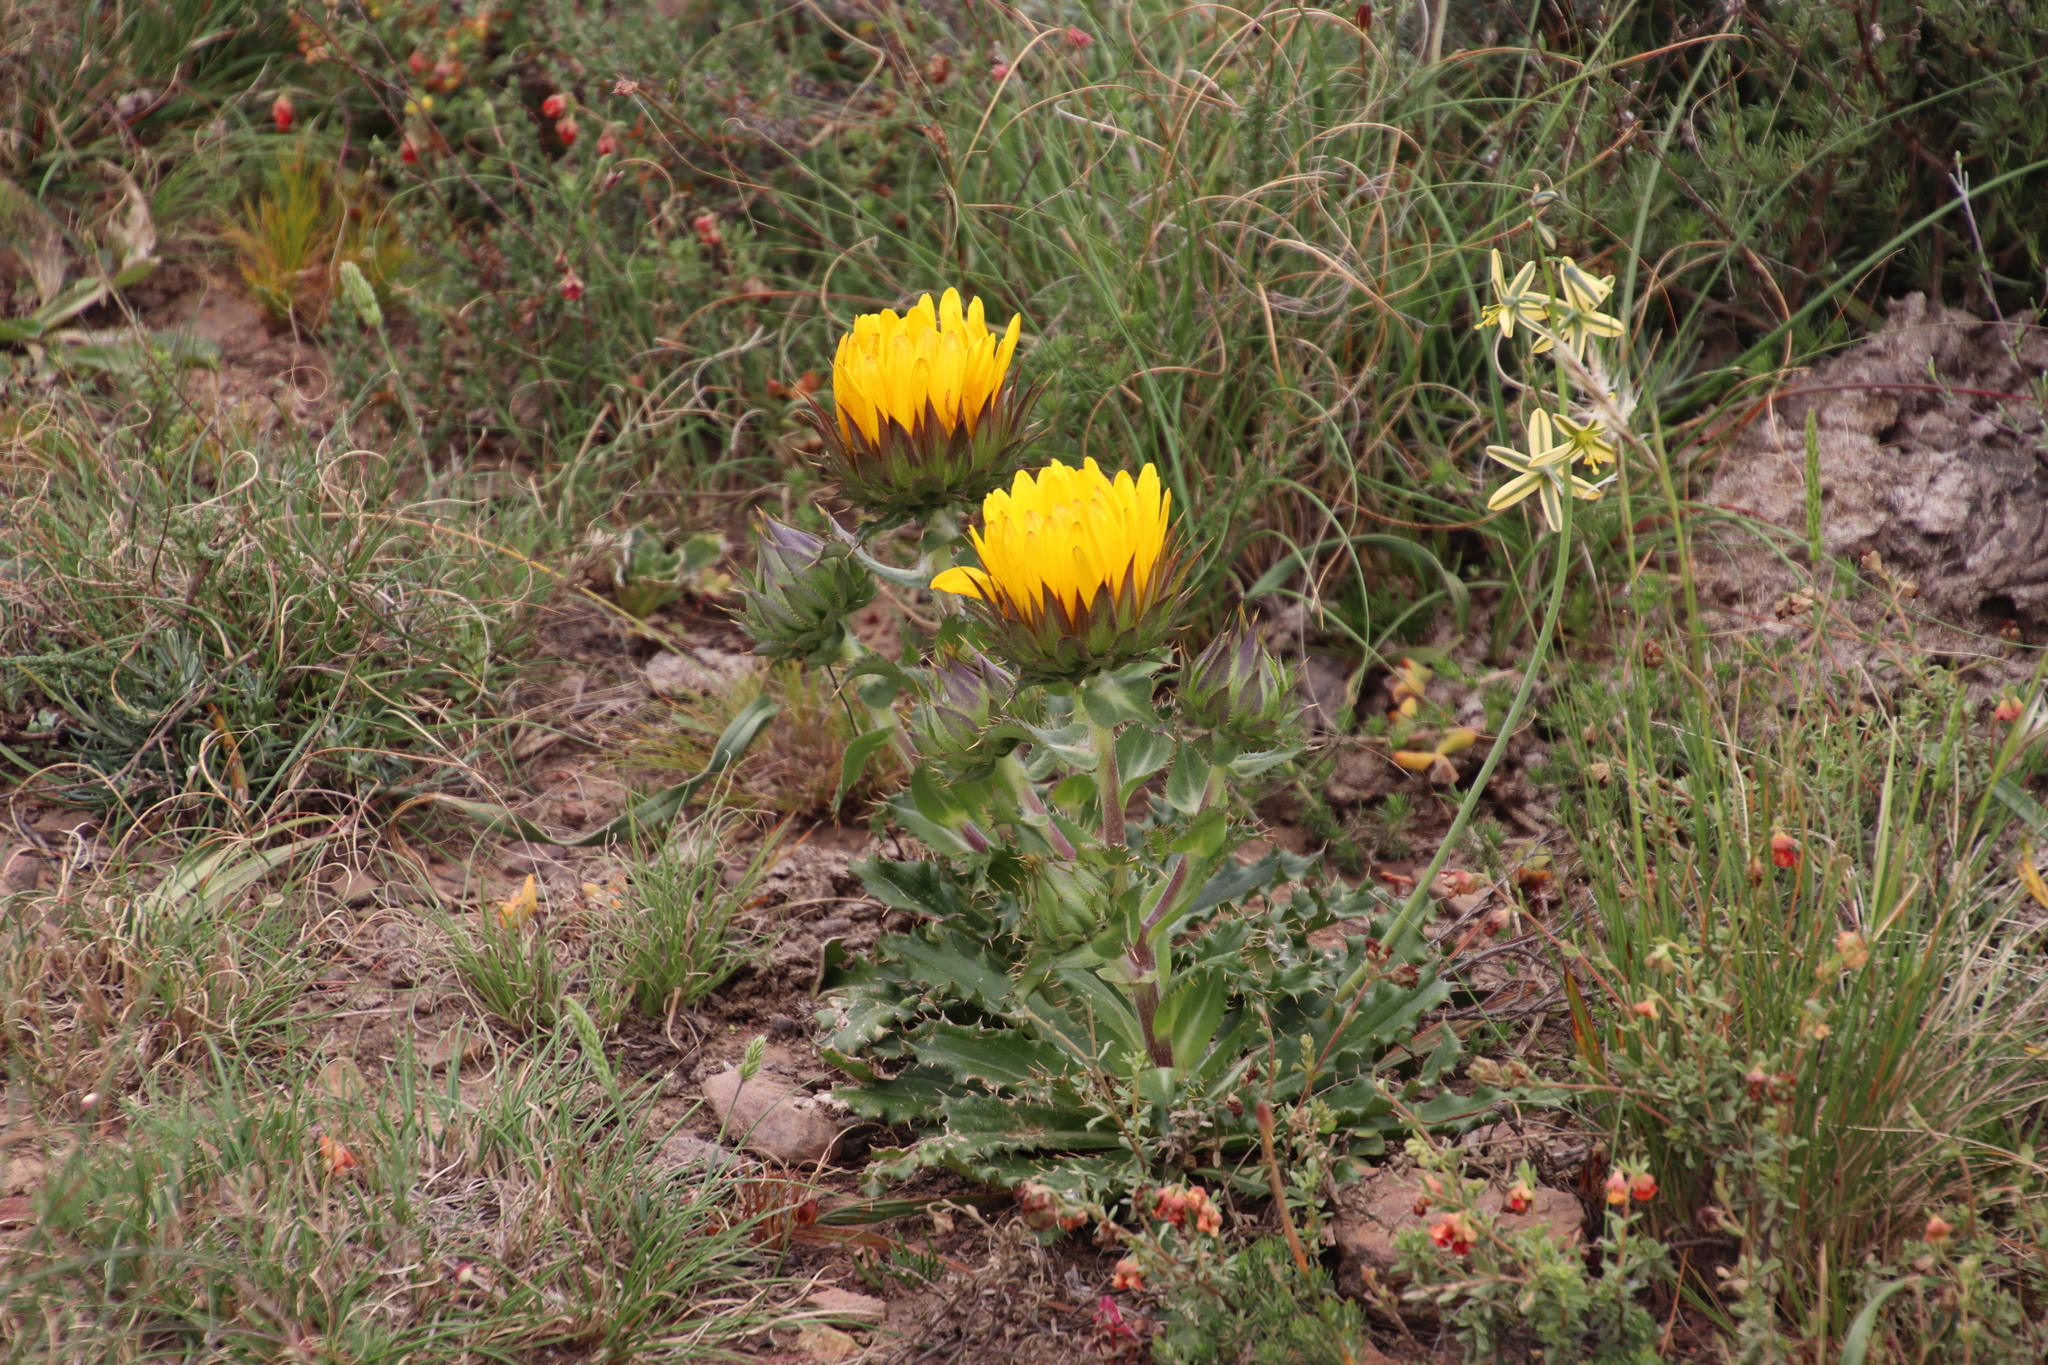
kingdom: Plantae
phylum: Tracheophyta
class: Magnoliopsida
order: Asterales
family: Asteraceae
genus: Berkheya
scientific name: Berkheya armata
